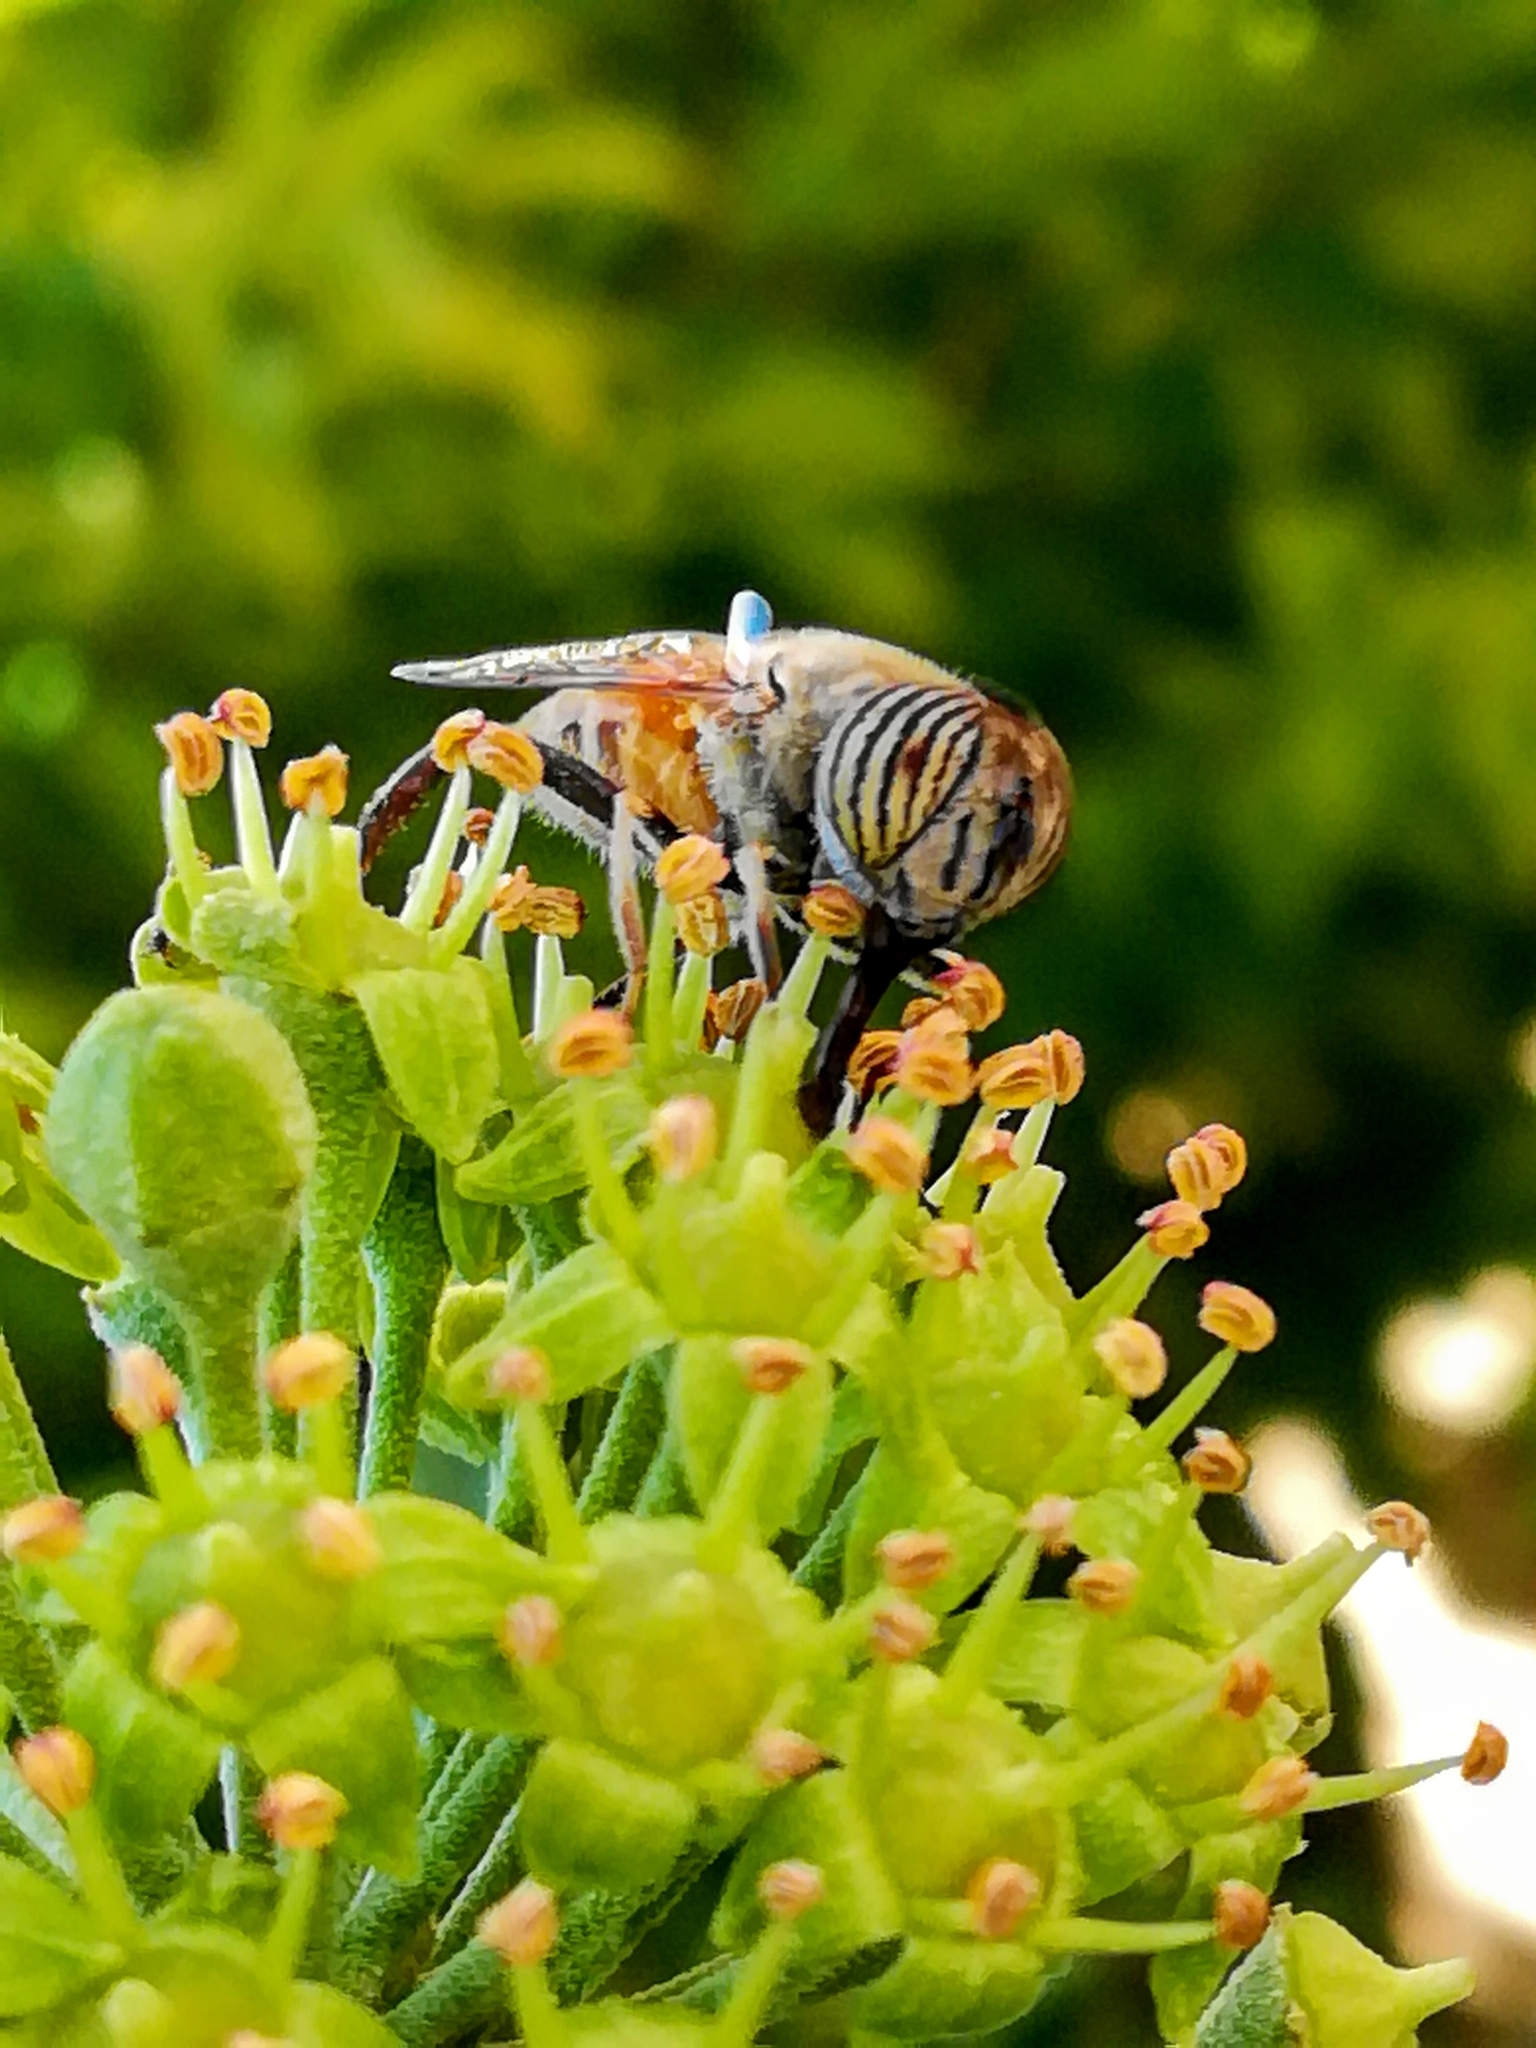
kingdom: Animalia
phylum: Arthropoda
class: Insecta
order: Diptera
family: Syrphidae
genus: Eristalinus
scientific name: Eristalinus taeniops
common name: Syrphid fly
